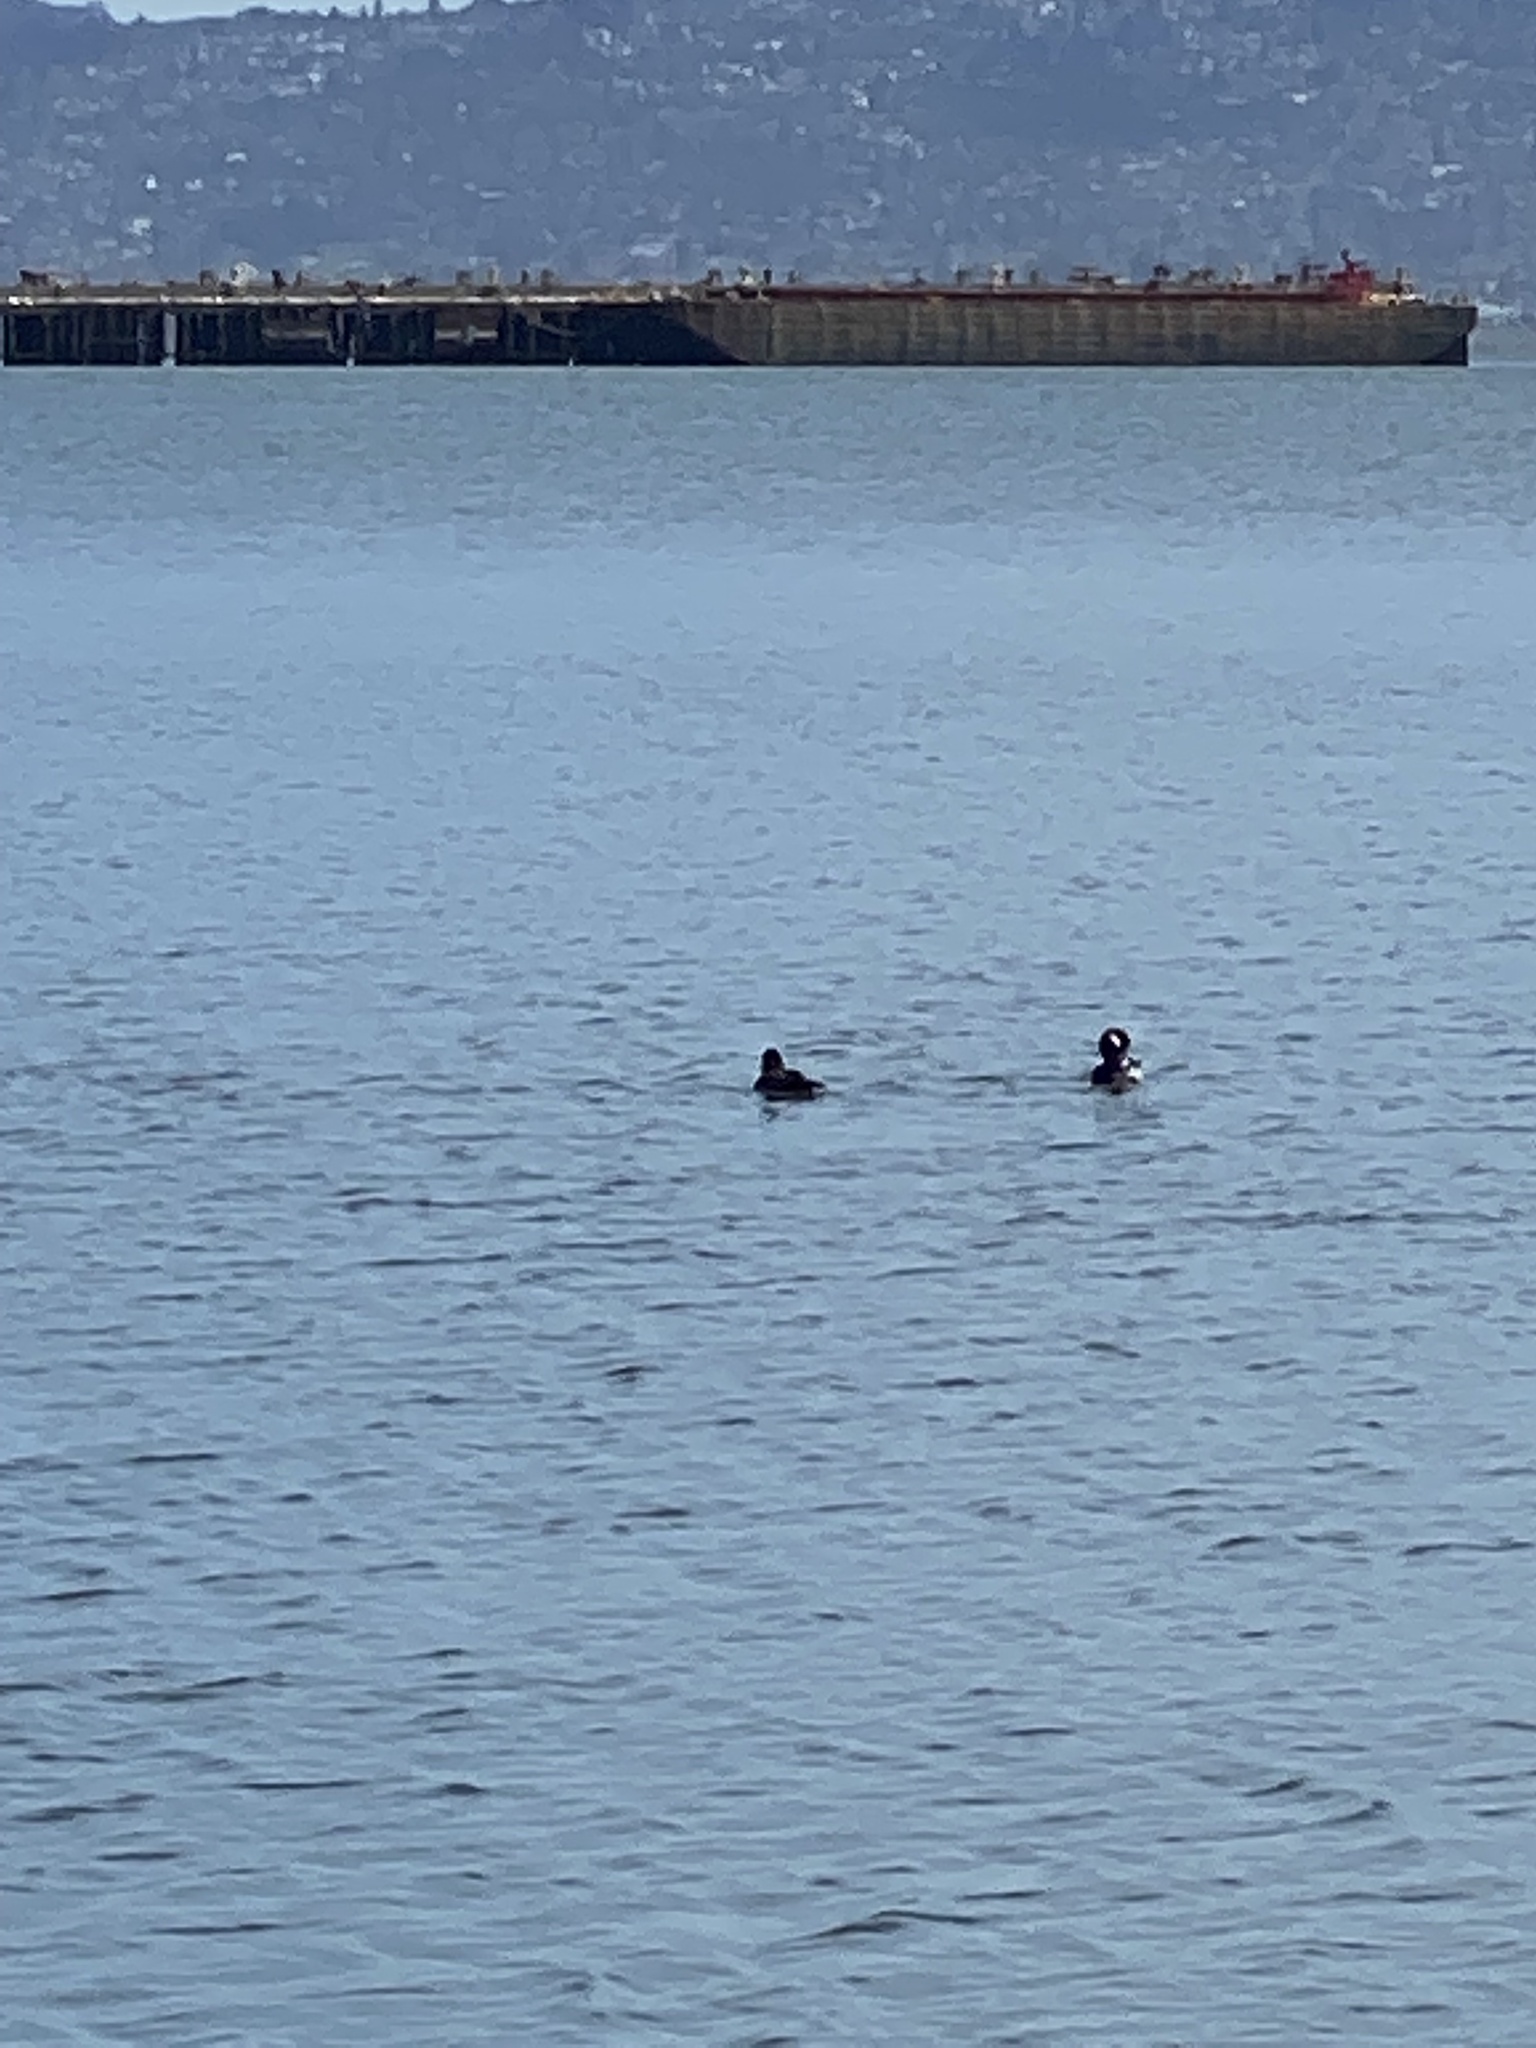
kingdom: Animalia
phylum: Chordata
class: Aves
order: Anseriformes
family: Anatidae
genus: Bucephala
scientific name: Bucephala albeola
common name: Bufflehead
